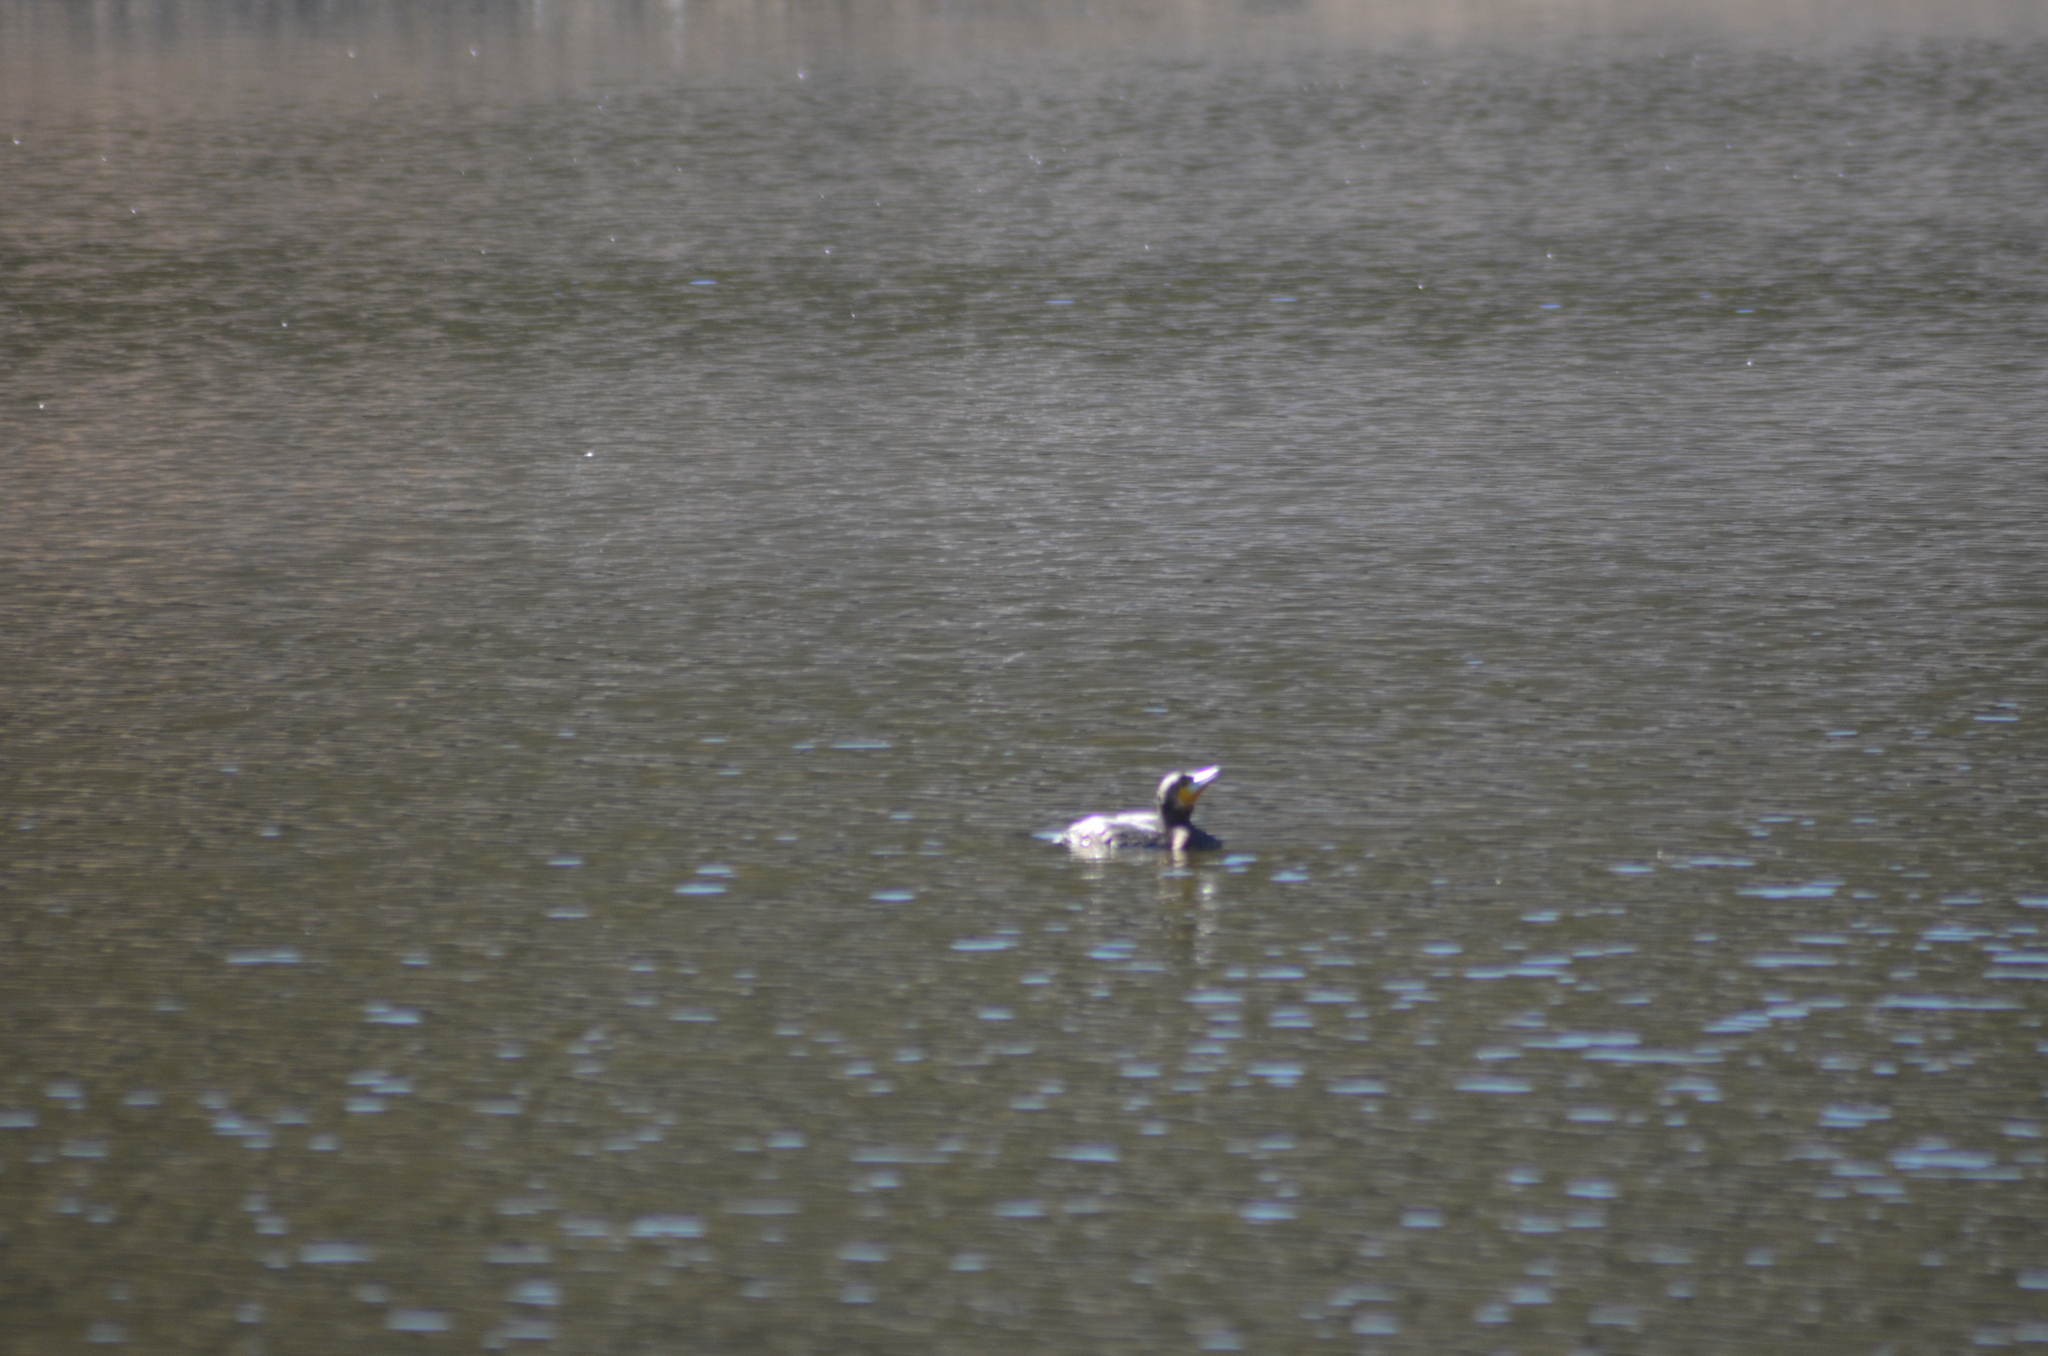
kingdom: Animalia
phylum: Chordata
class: Aves
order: Suliformes
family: Phalacrocoracidae
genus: Phalacrocorax
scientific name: Phalacrocorax carbo
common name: Great cormorant
